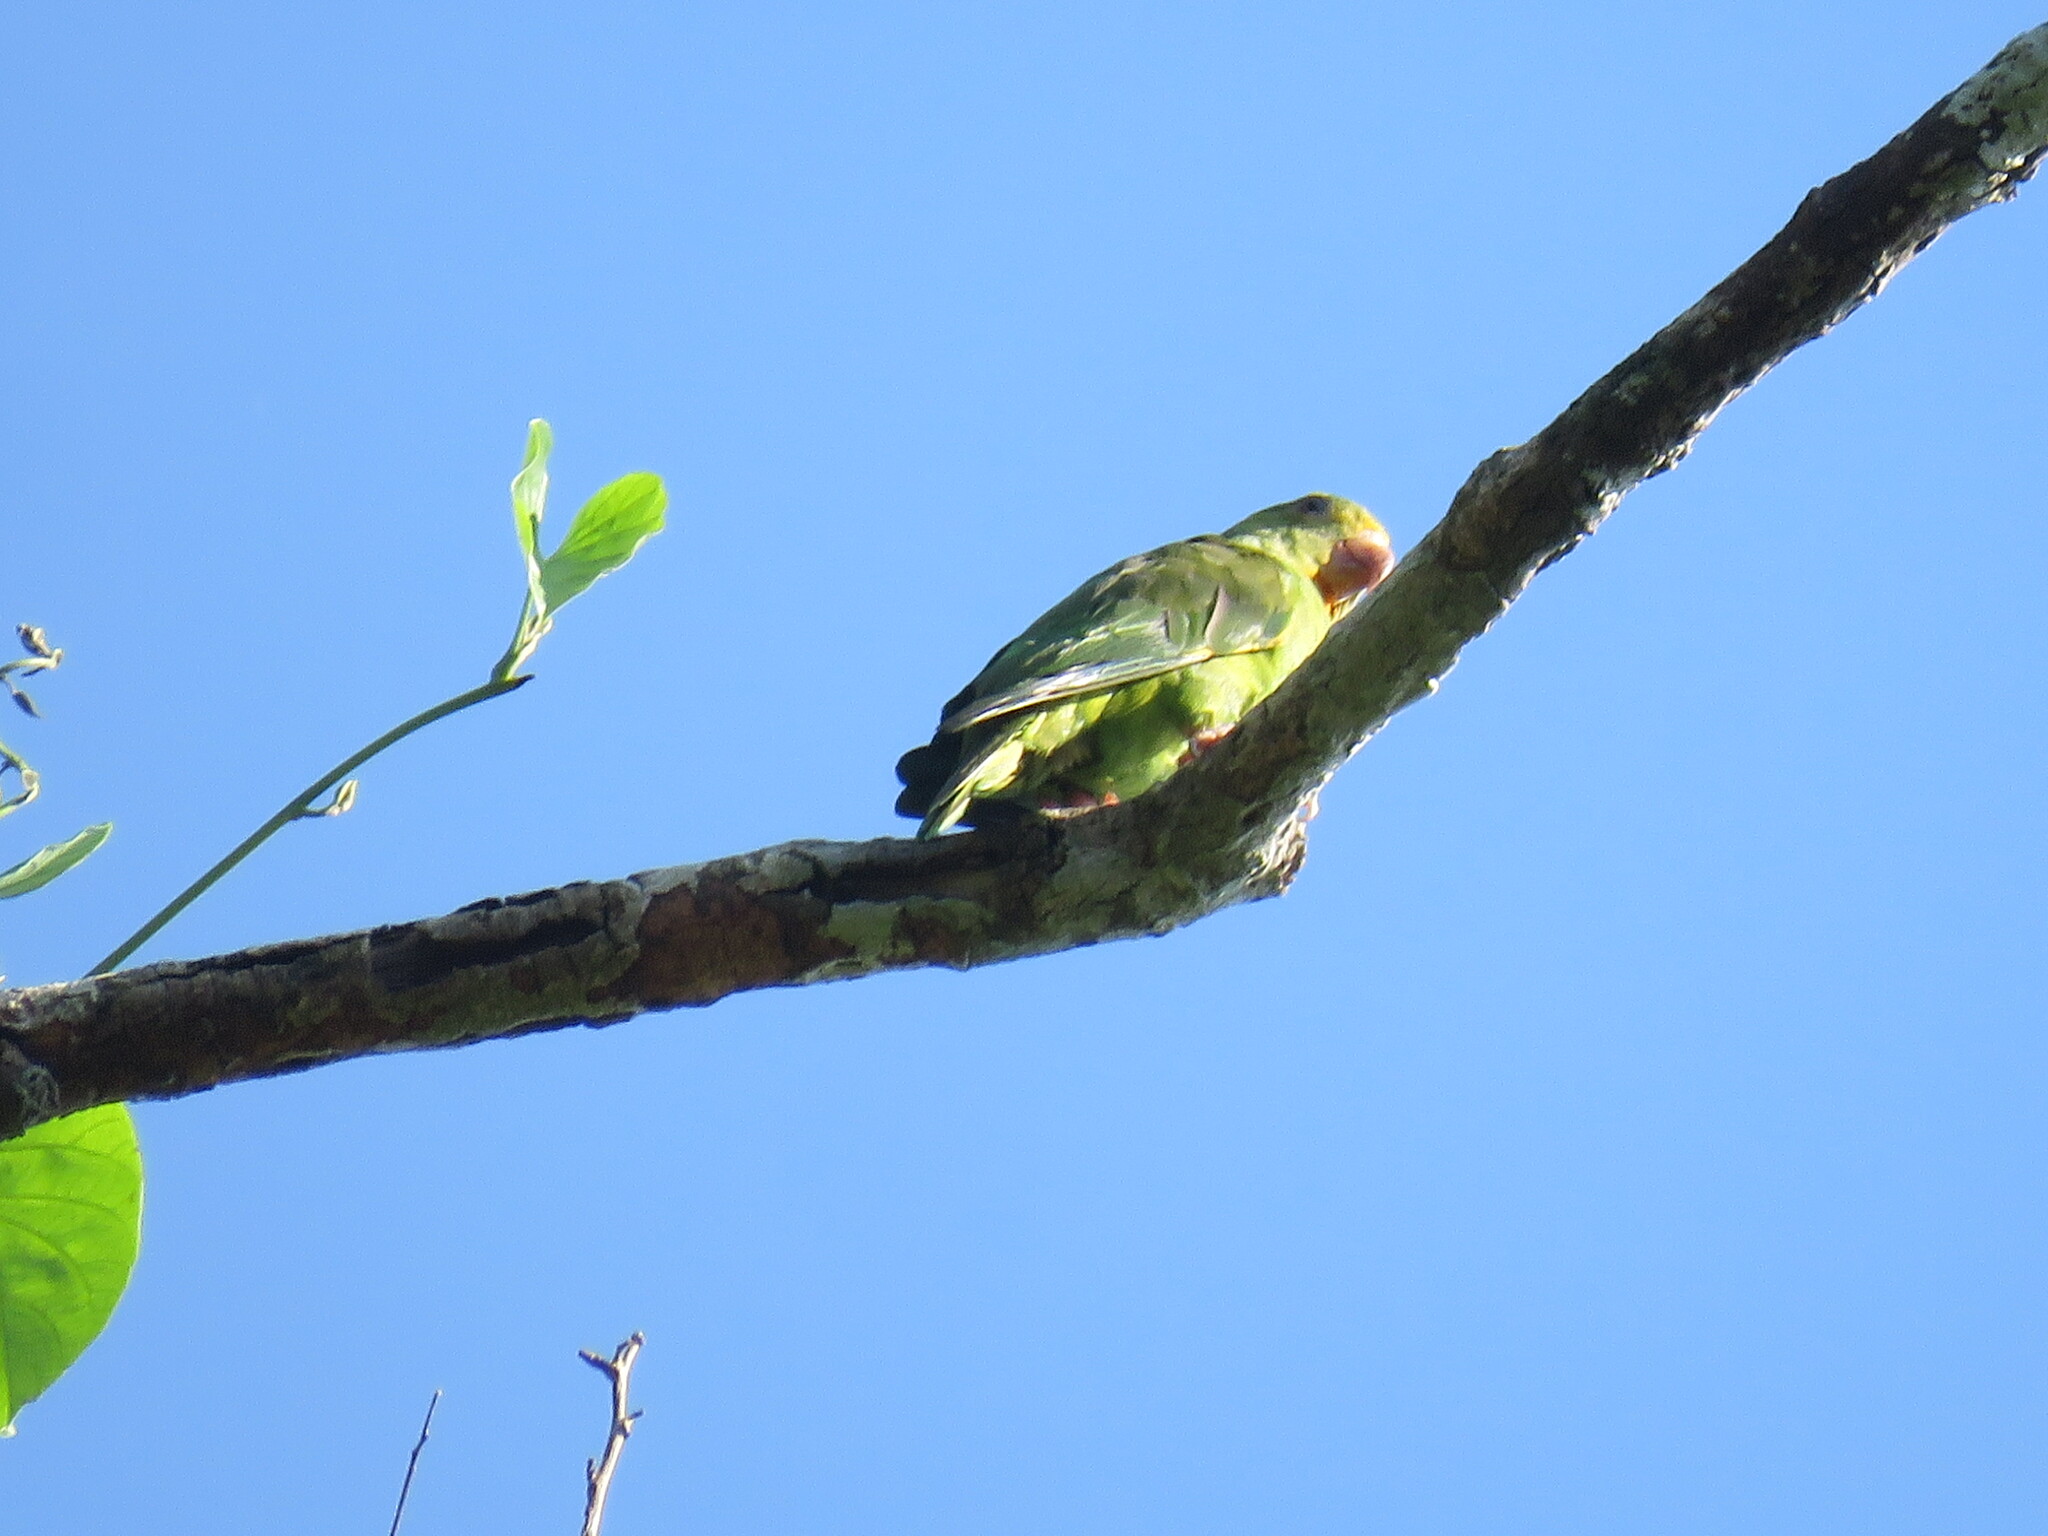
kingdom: Animalia
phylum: Chordata
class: Aves
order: Psittaciformes
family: Psittacidae
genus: Brotogeris
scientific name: Brotogeris cyanoptera
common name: Cobalt-winged parakeet
